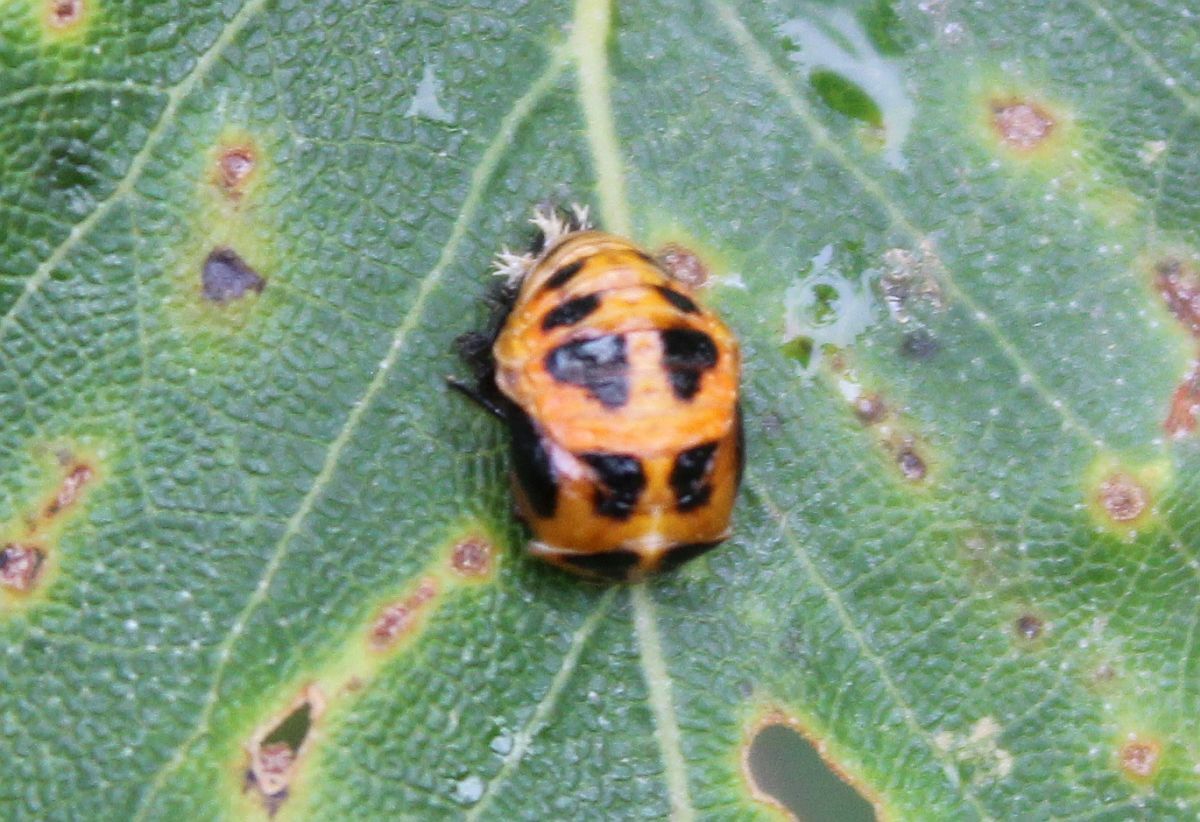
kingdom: Animalia
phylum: Arthropoda
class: Insecta
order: Coleoptera
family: Coccinellidae
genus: Harmonia
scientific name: Harmonia axyridis
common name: Harlequin ladybird
